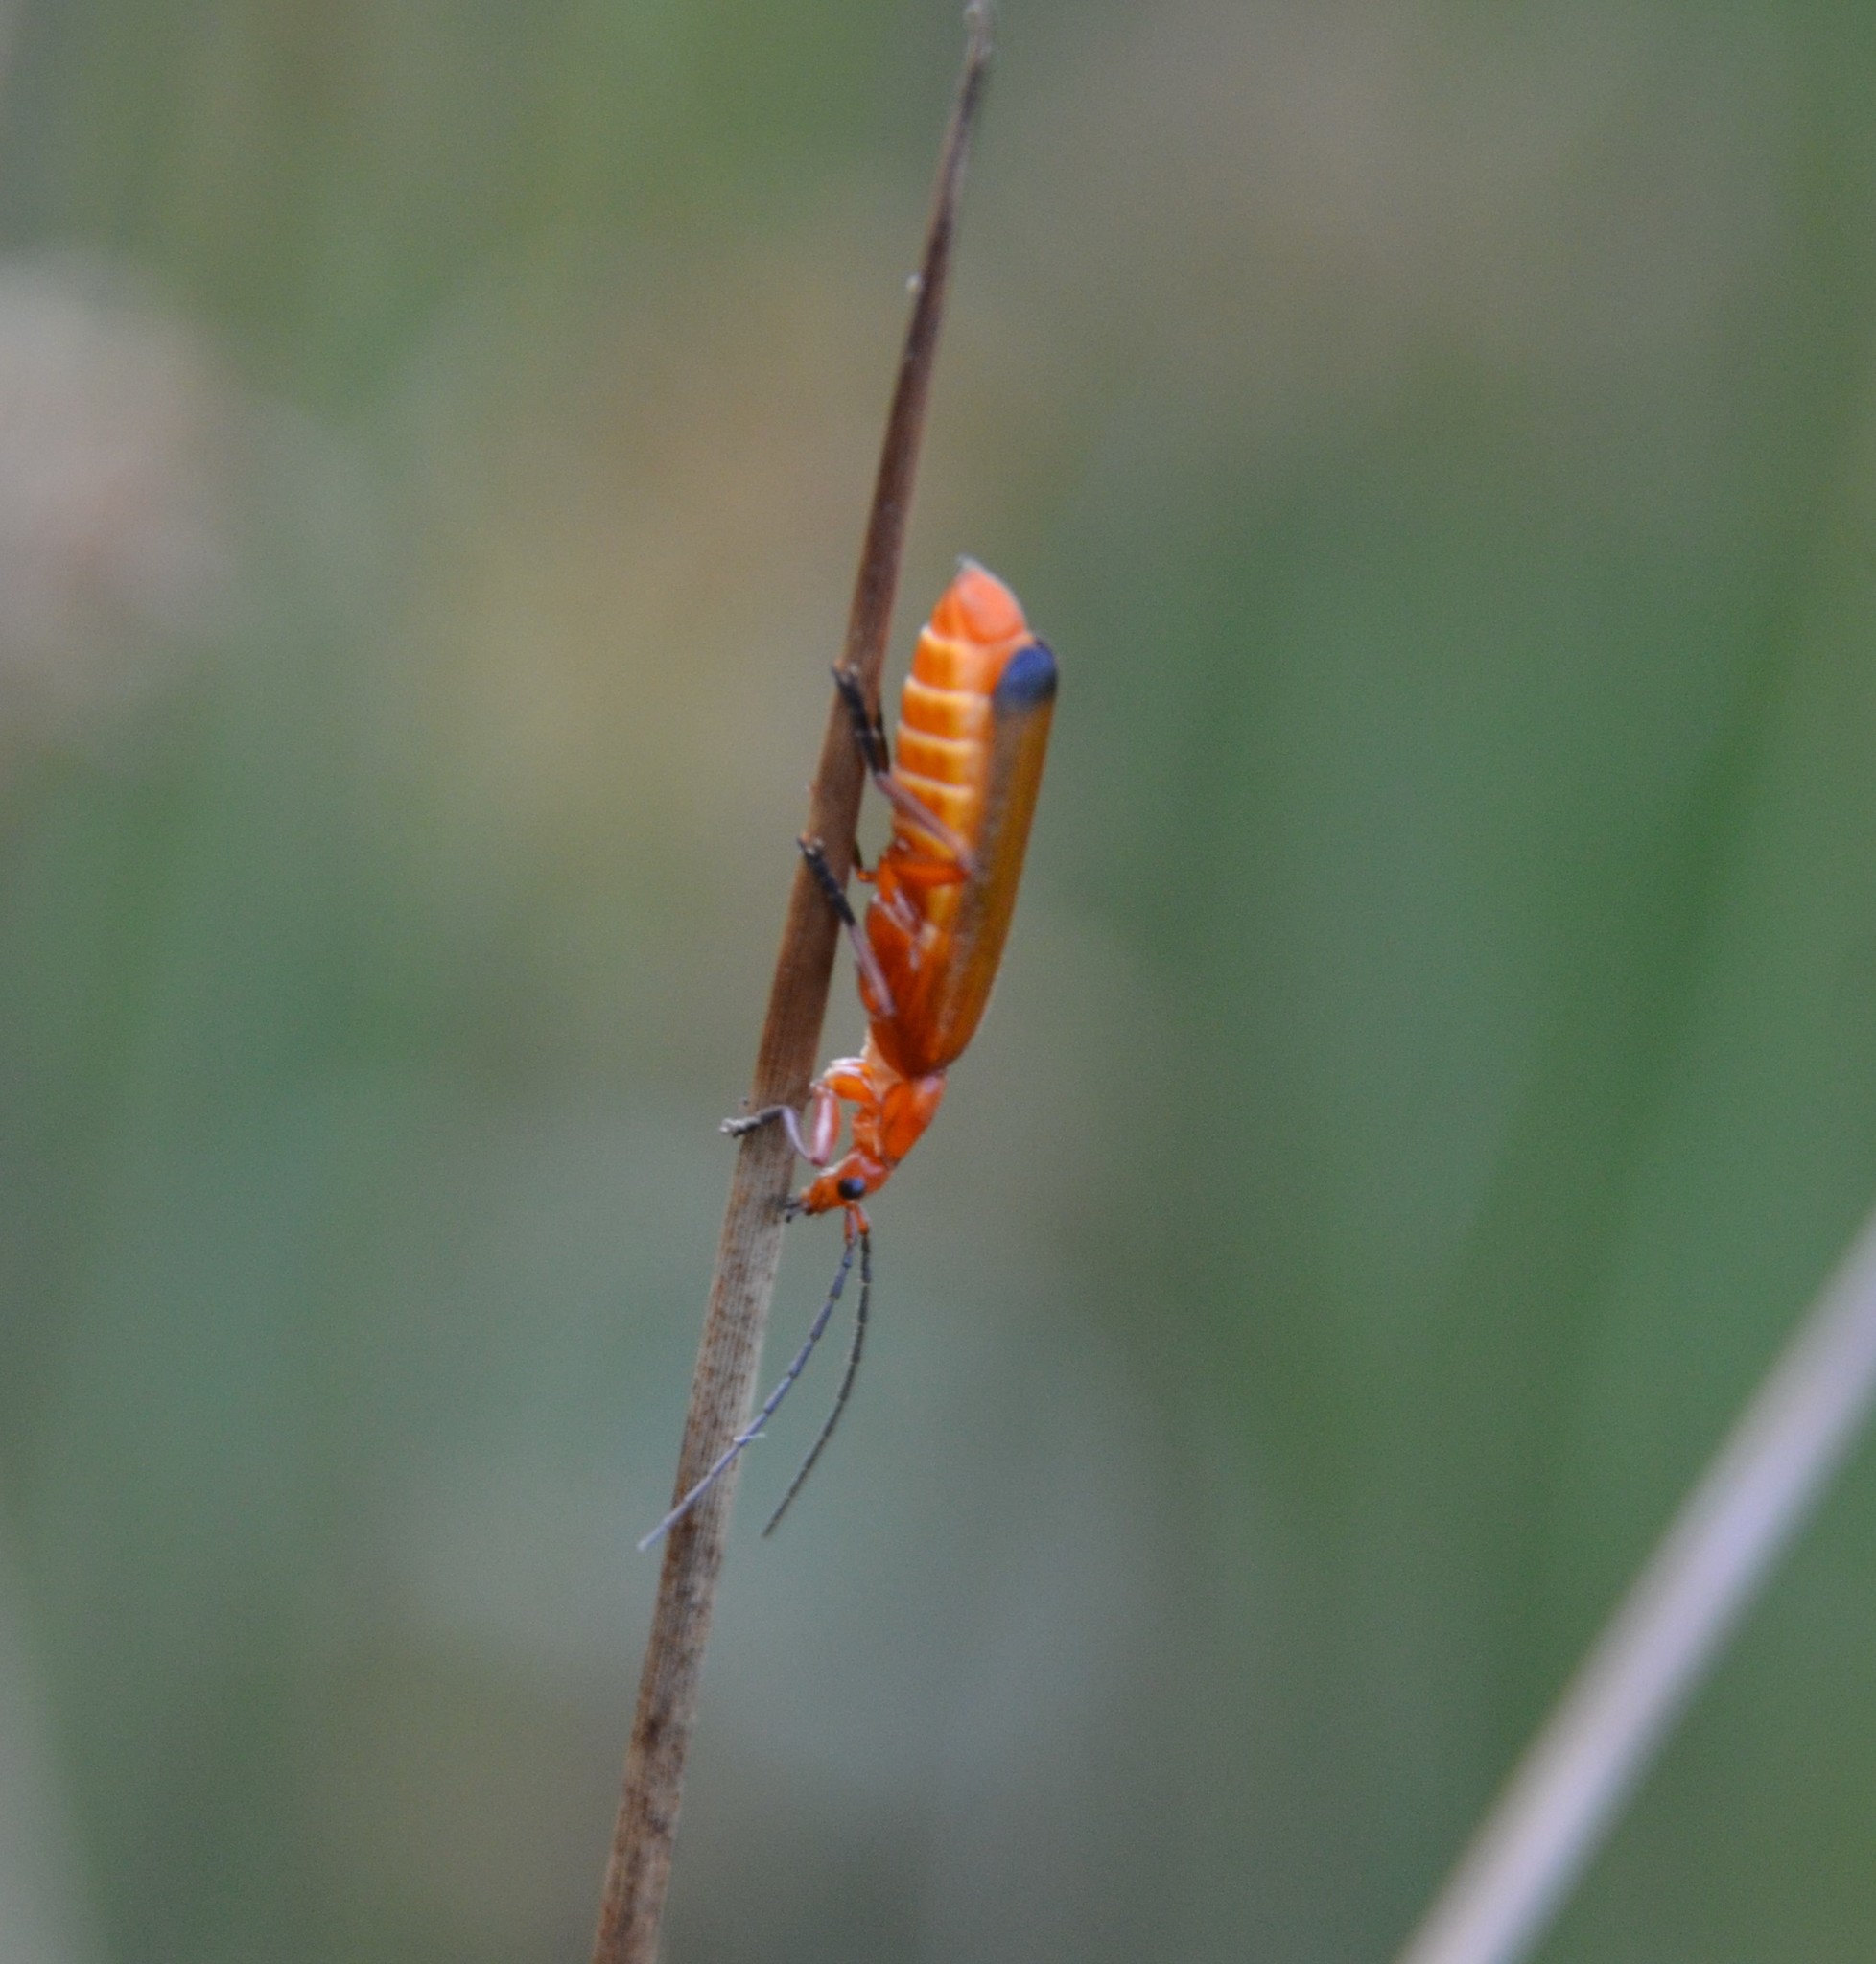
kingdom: Animalia
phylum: Arthropoda
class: Insecta
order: Coleoptera
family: Cantharidae
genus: Rhagonycha
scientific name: Rhagonycha fulva
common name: Common red soldier beetle
